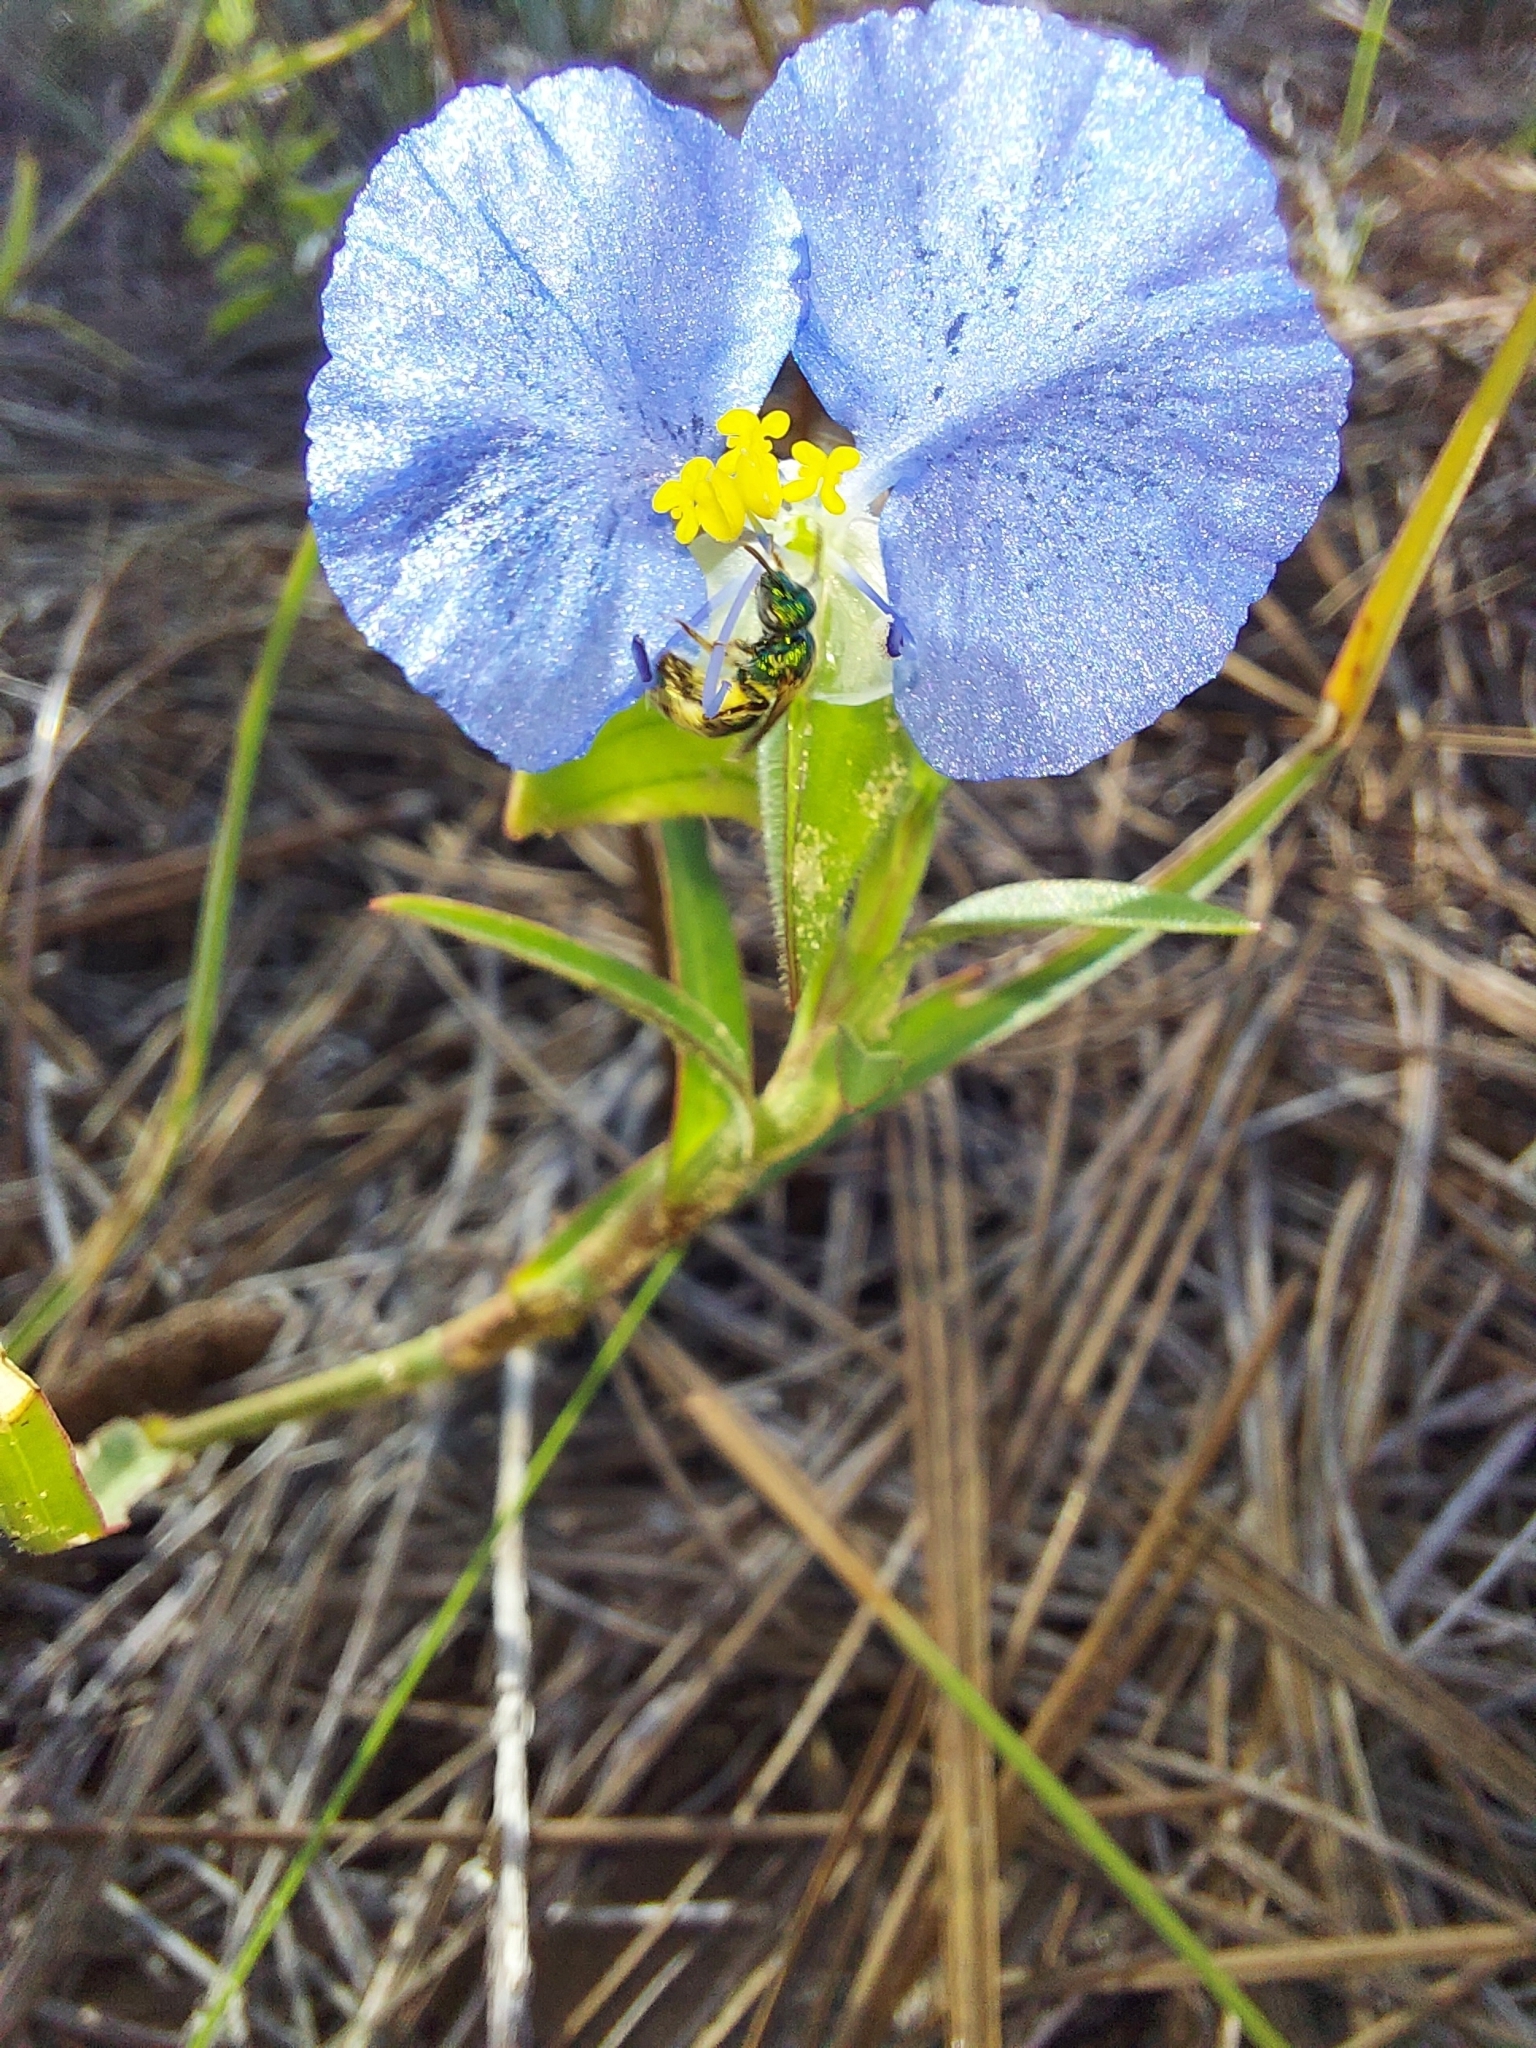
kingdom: Animalia
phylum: Arthropoda
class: Insecta
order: Hymenoptera
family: Halictidae
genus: Augochlorella
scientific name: Augochlorella
